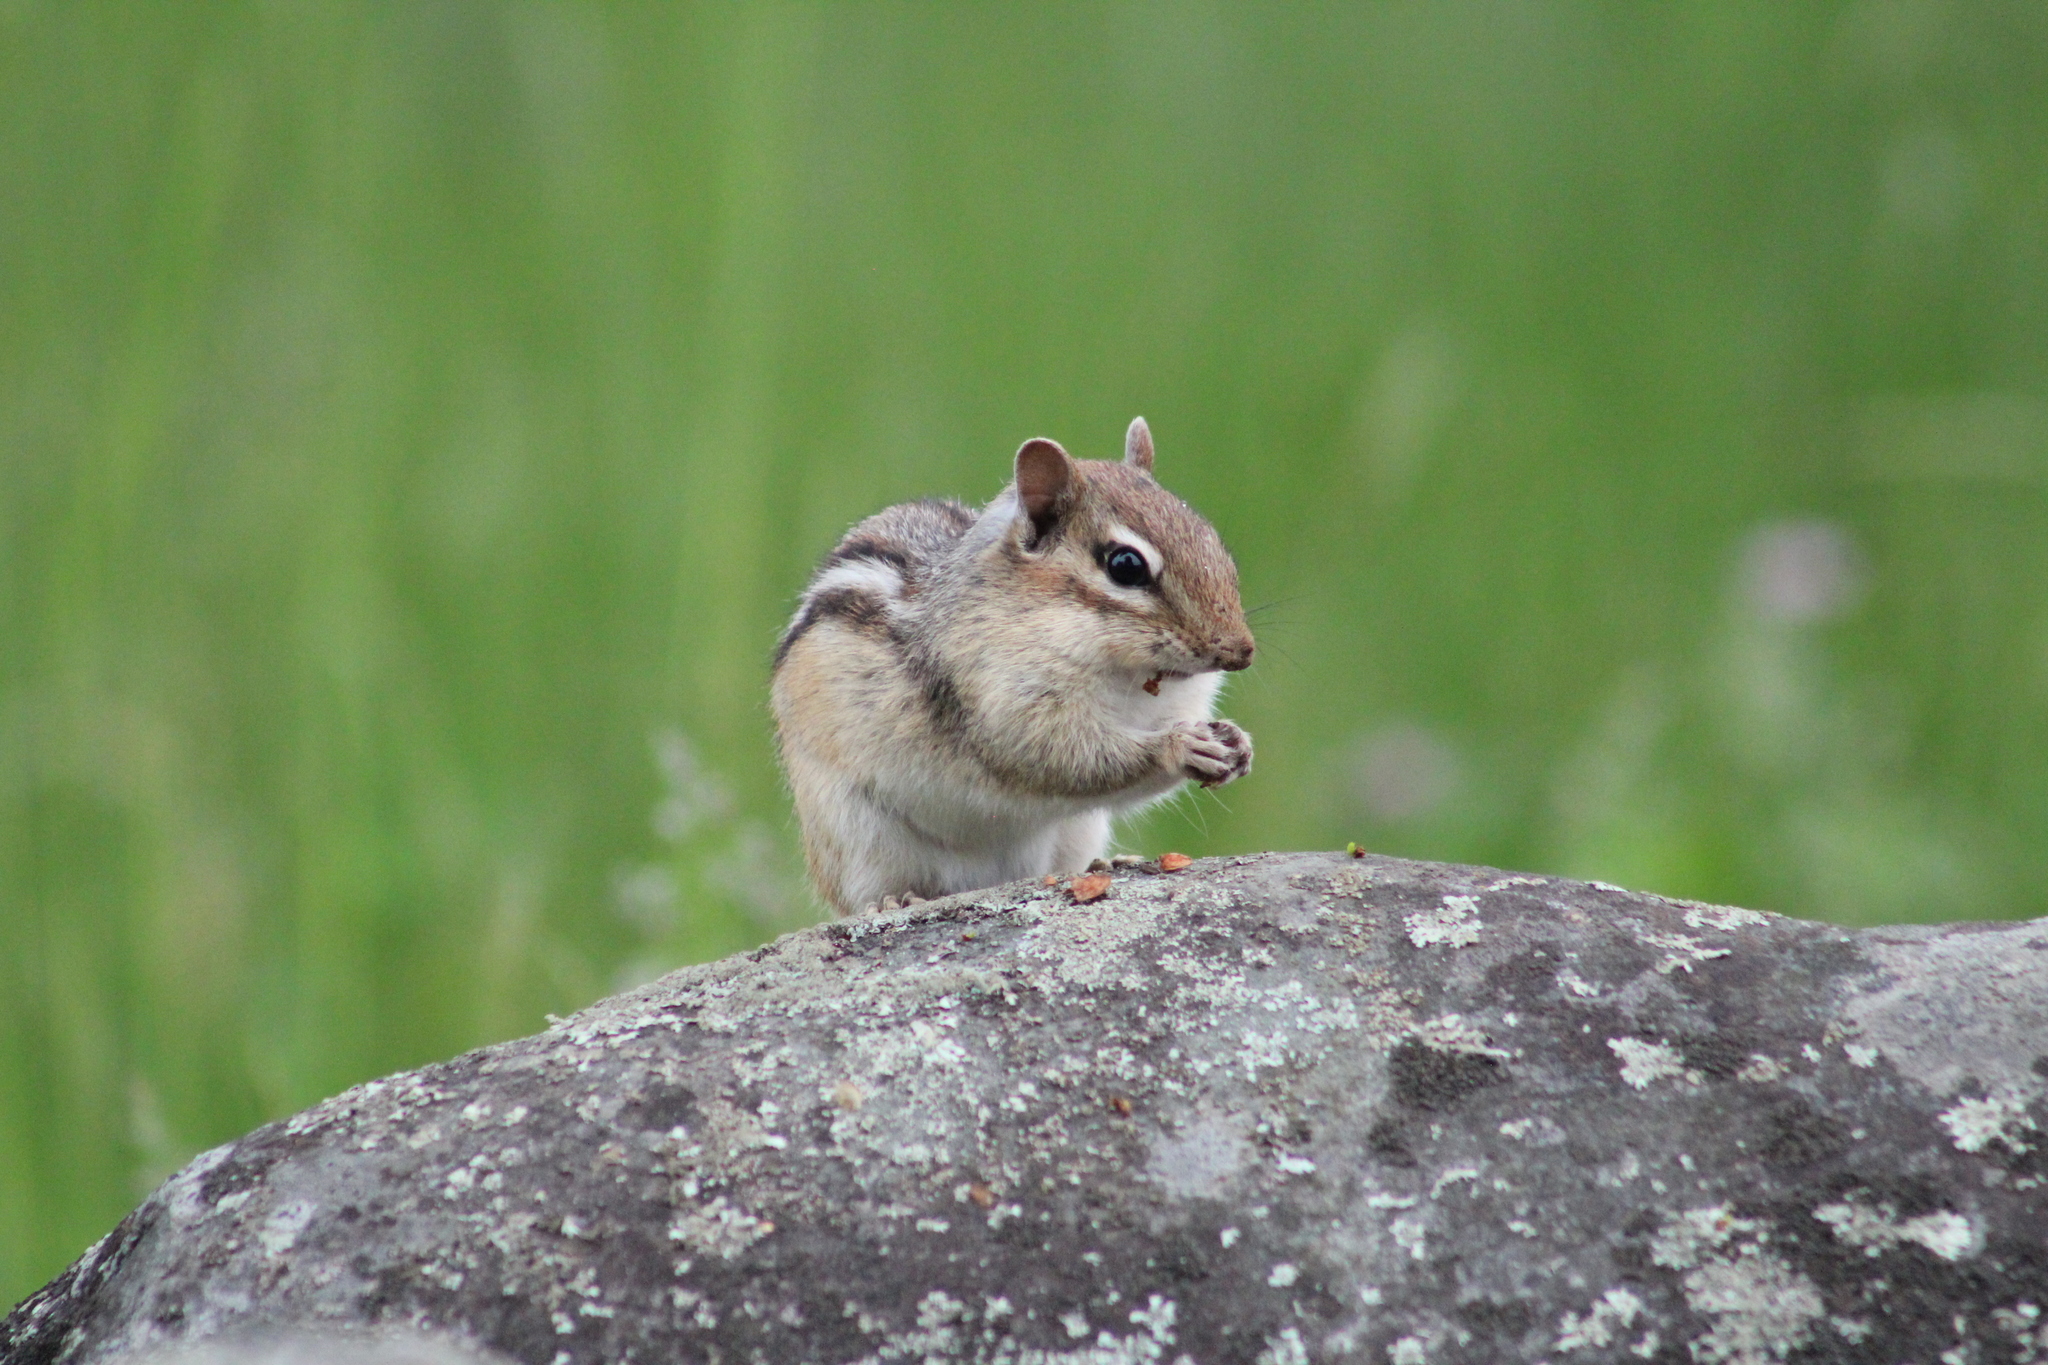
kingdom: Animalia
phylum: Chordata
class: Mammalia
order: Rodentia
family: Sciuridae
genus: Tamias
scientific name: Tamias striatus
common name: Eastern chipmunk
